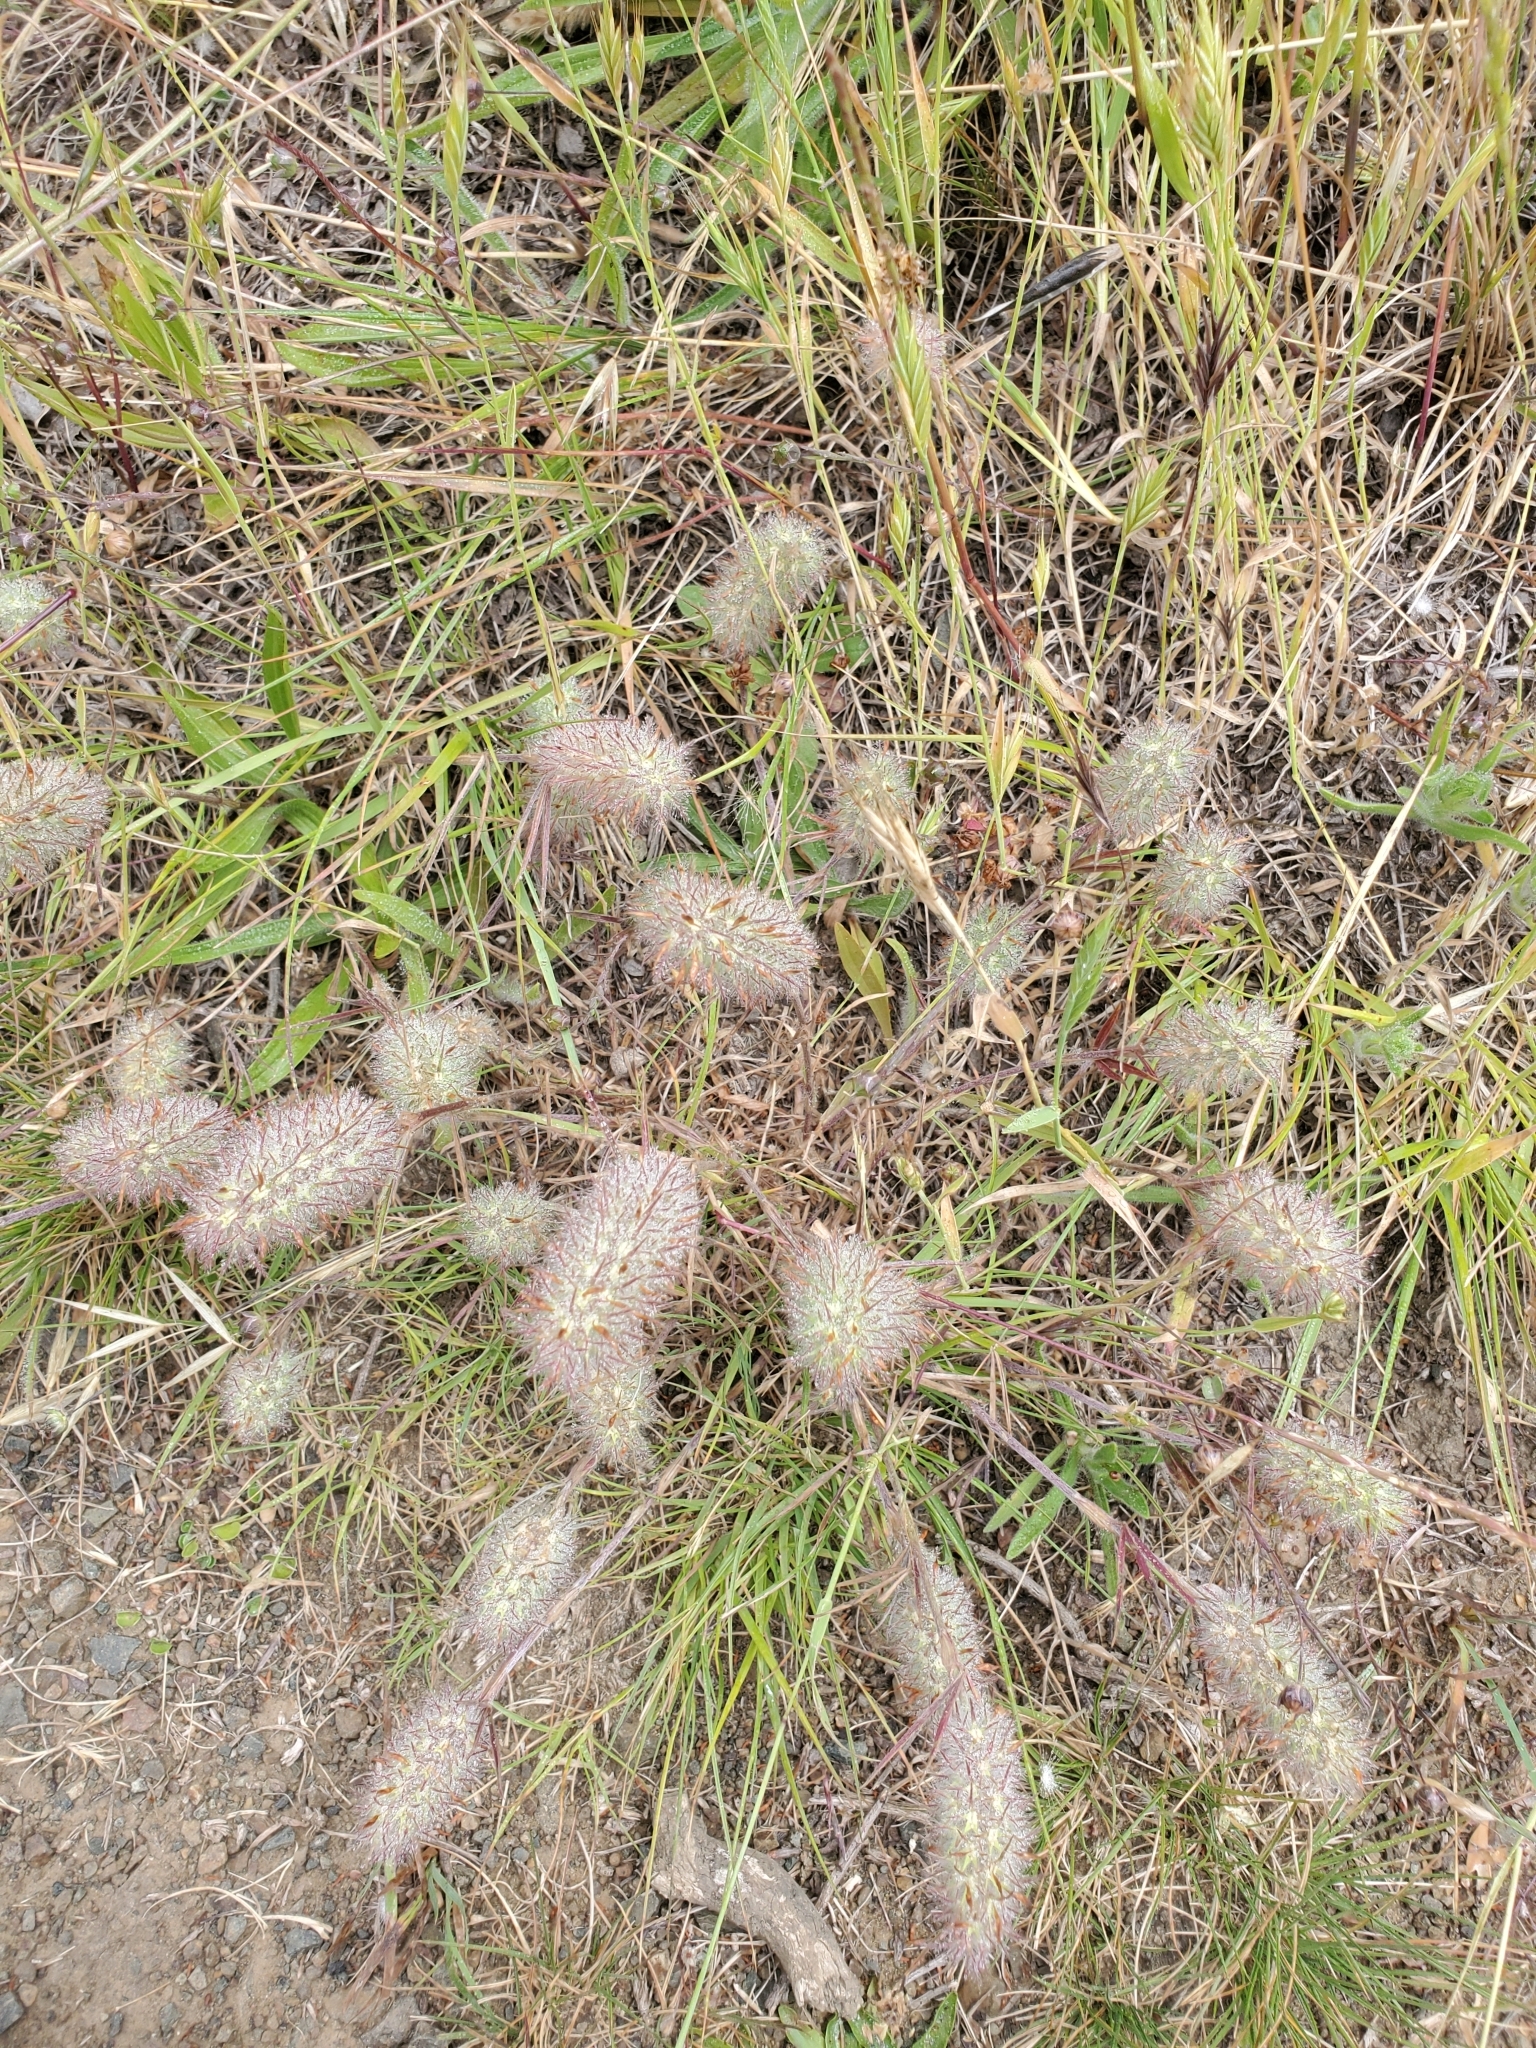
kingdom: Plantae
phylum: Tracheophyta
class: Magnoliopsida
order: Fabales
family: Fabaceae
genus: Trifolium
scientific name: Trifolium angustifolium
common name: Narrow clover
